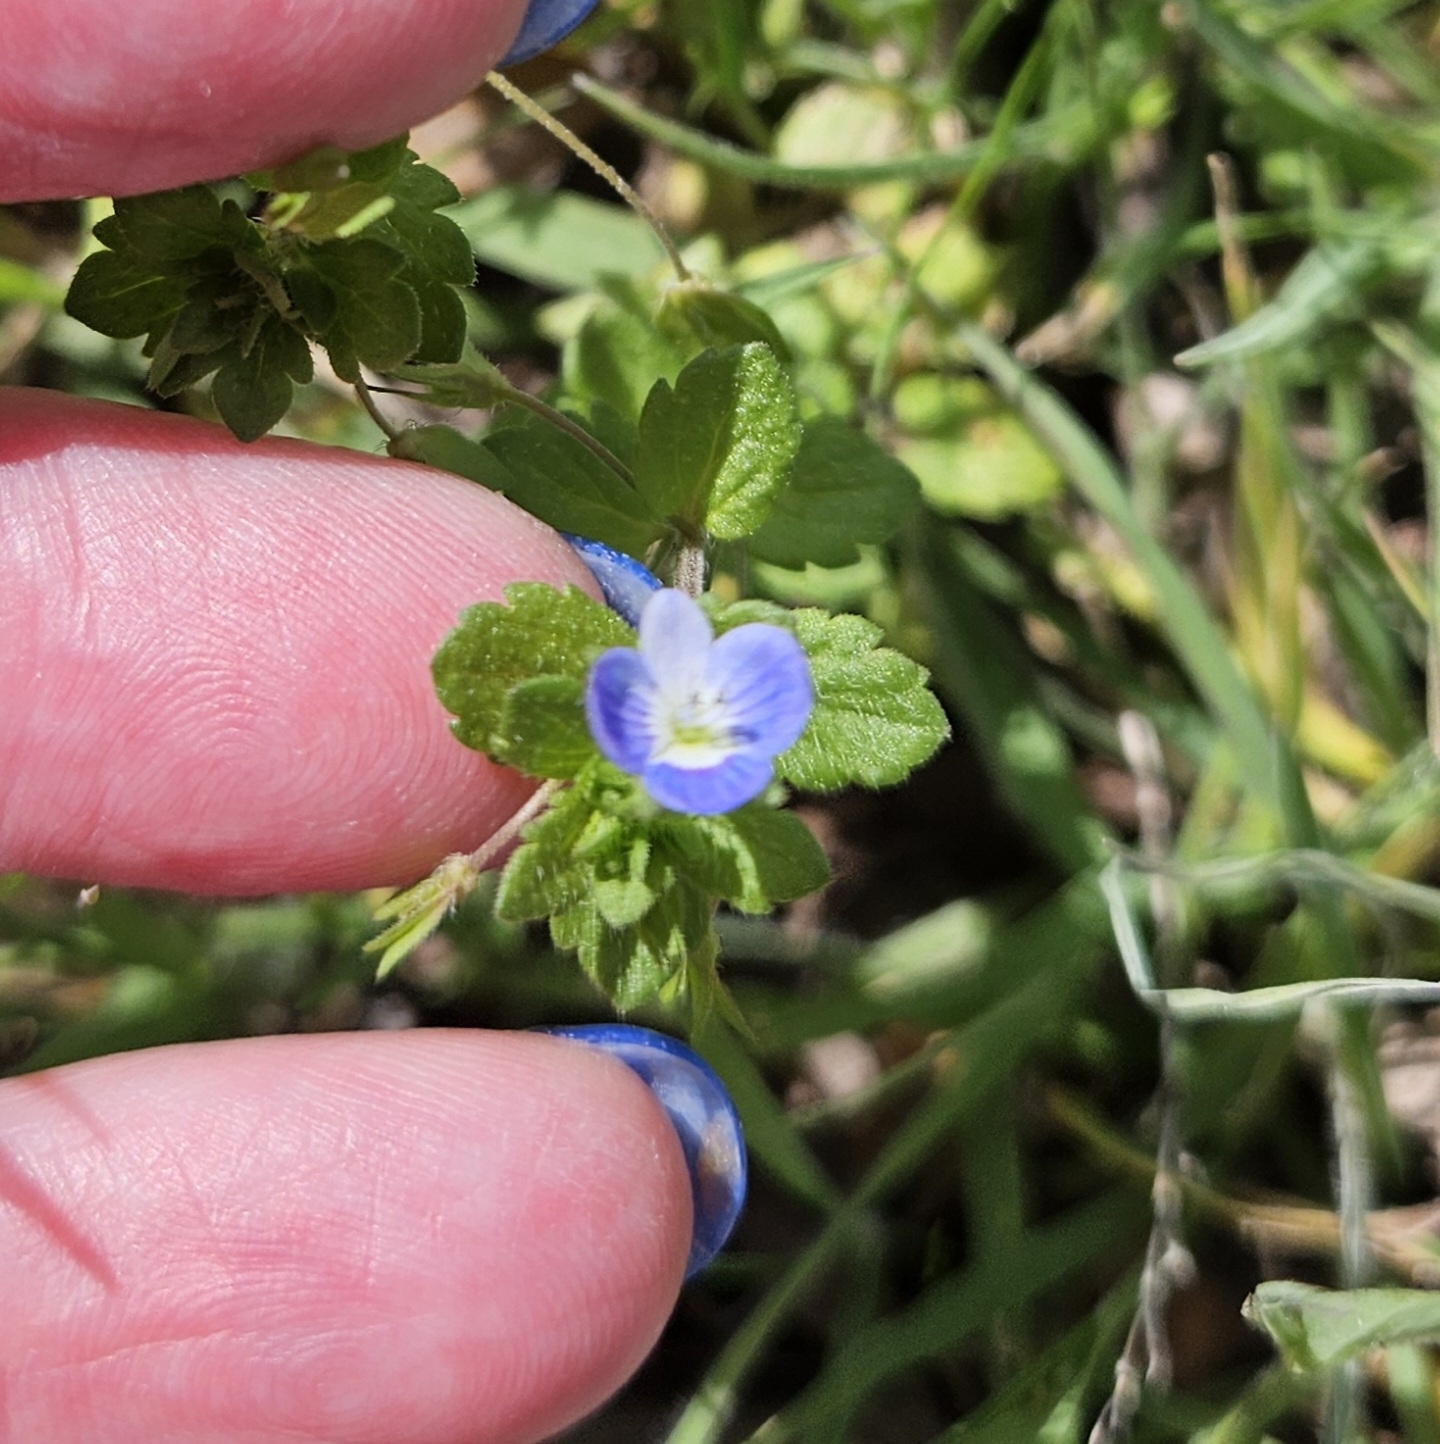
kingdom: Plantae
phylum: Tracheophyta
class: Magnoliopsida
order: Lamiales
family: Plantaginaceae
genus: Veronica
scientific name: Veronica persica
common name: Common field-speedwell
